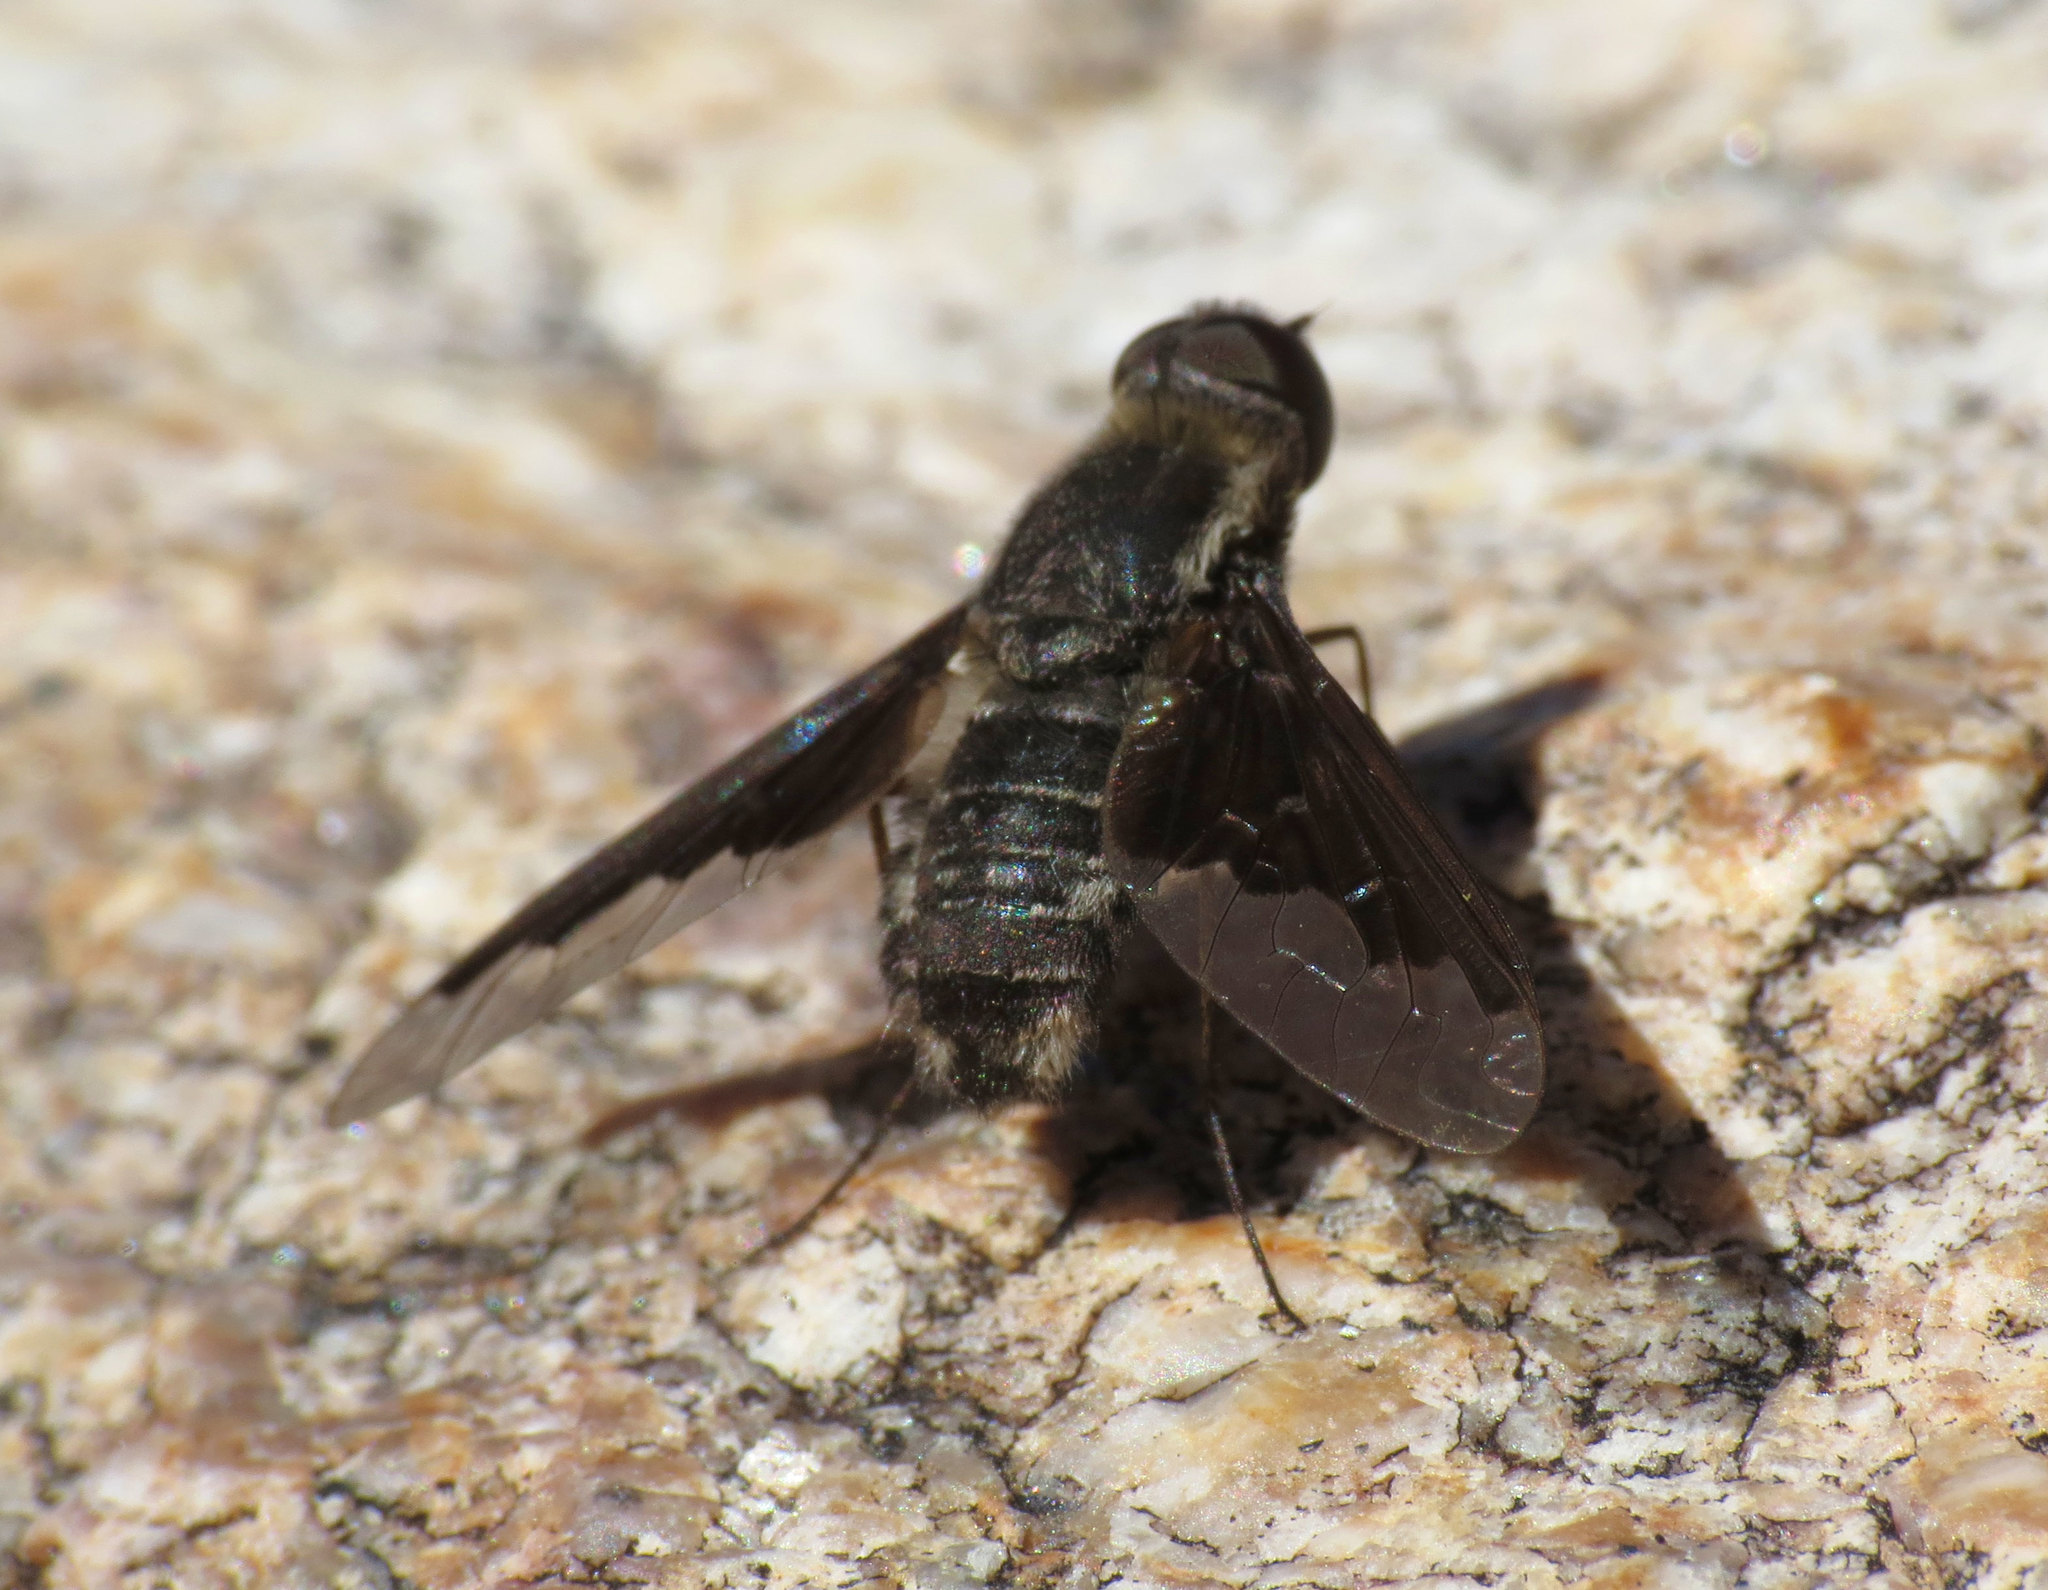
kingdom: Animalia
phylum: Arthropoda
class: Insecta
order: Diptera
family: Bombyliidae
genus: Hemipenthes
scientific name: Hemipenthes seminiger
